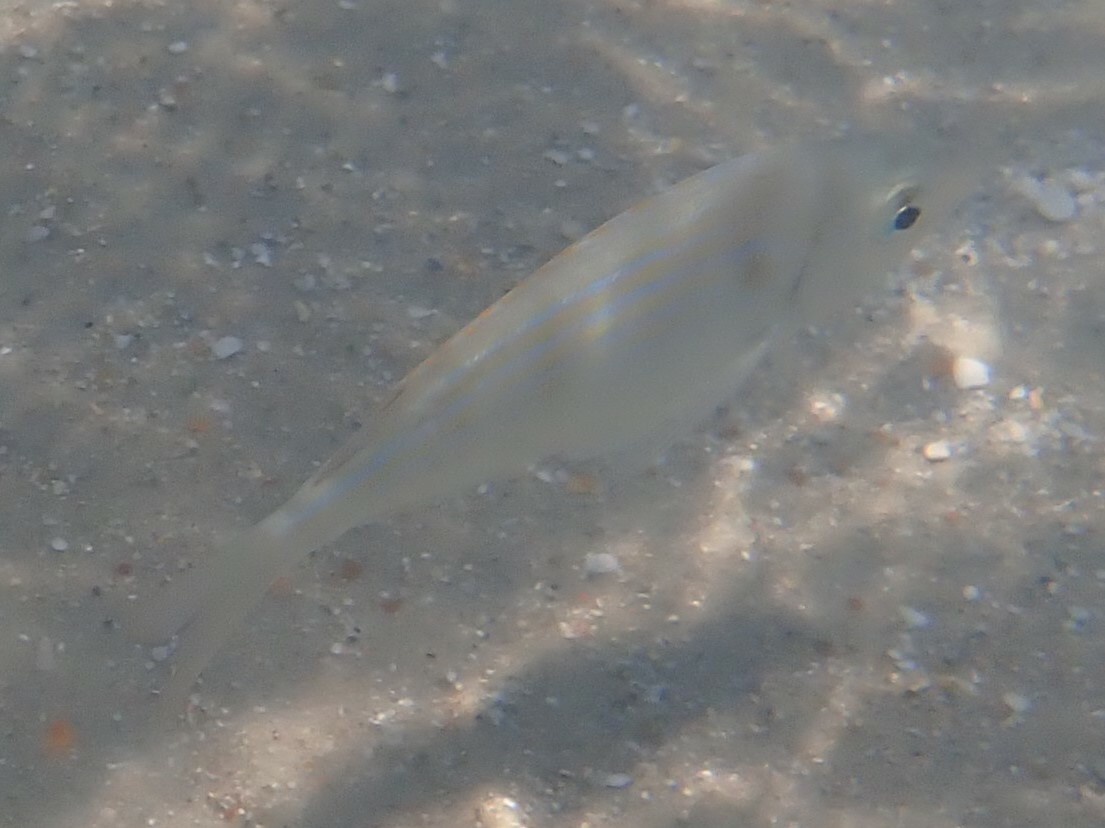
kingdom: Animalia
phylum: Chordata
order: Perciformes
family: Sparidae
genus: Lagodon
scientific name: Lagodon rhomboides
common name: Pinfish
